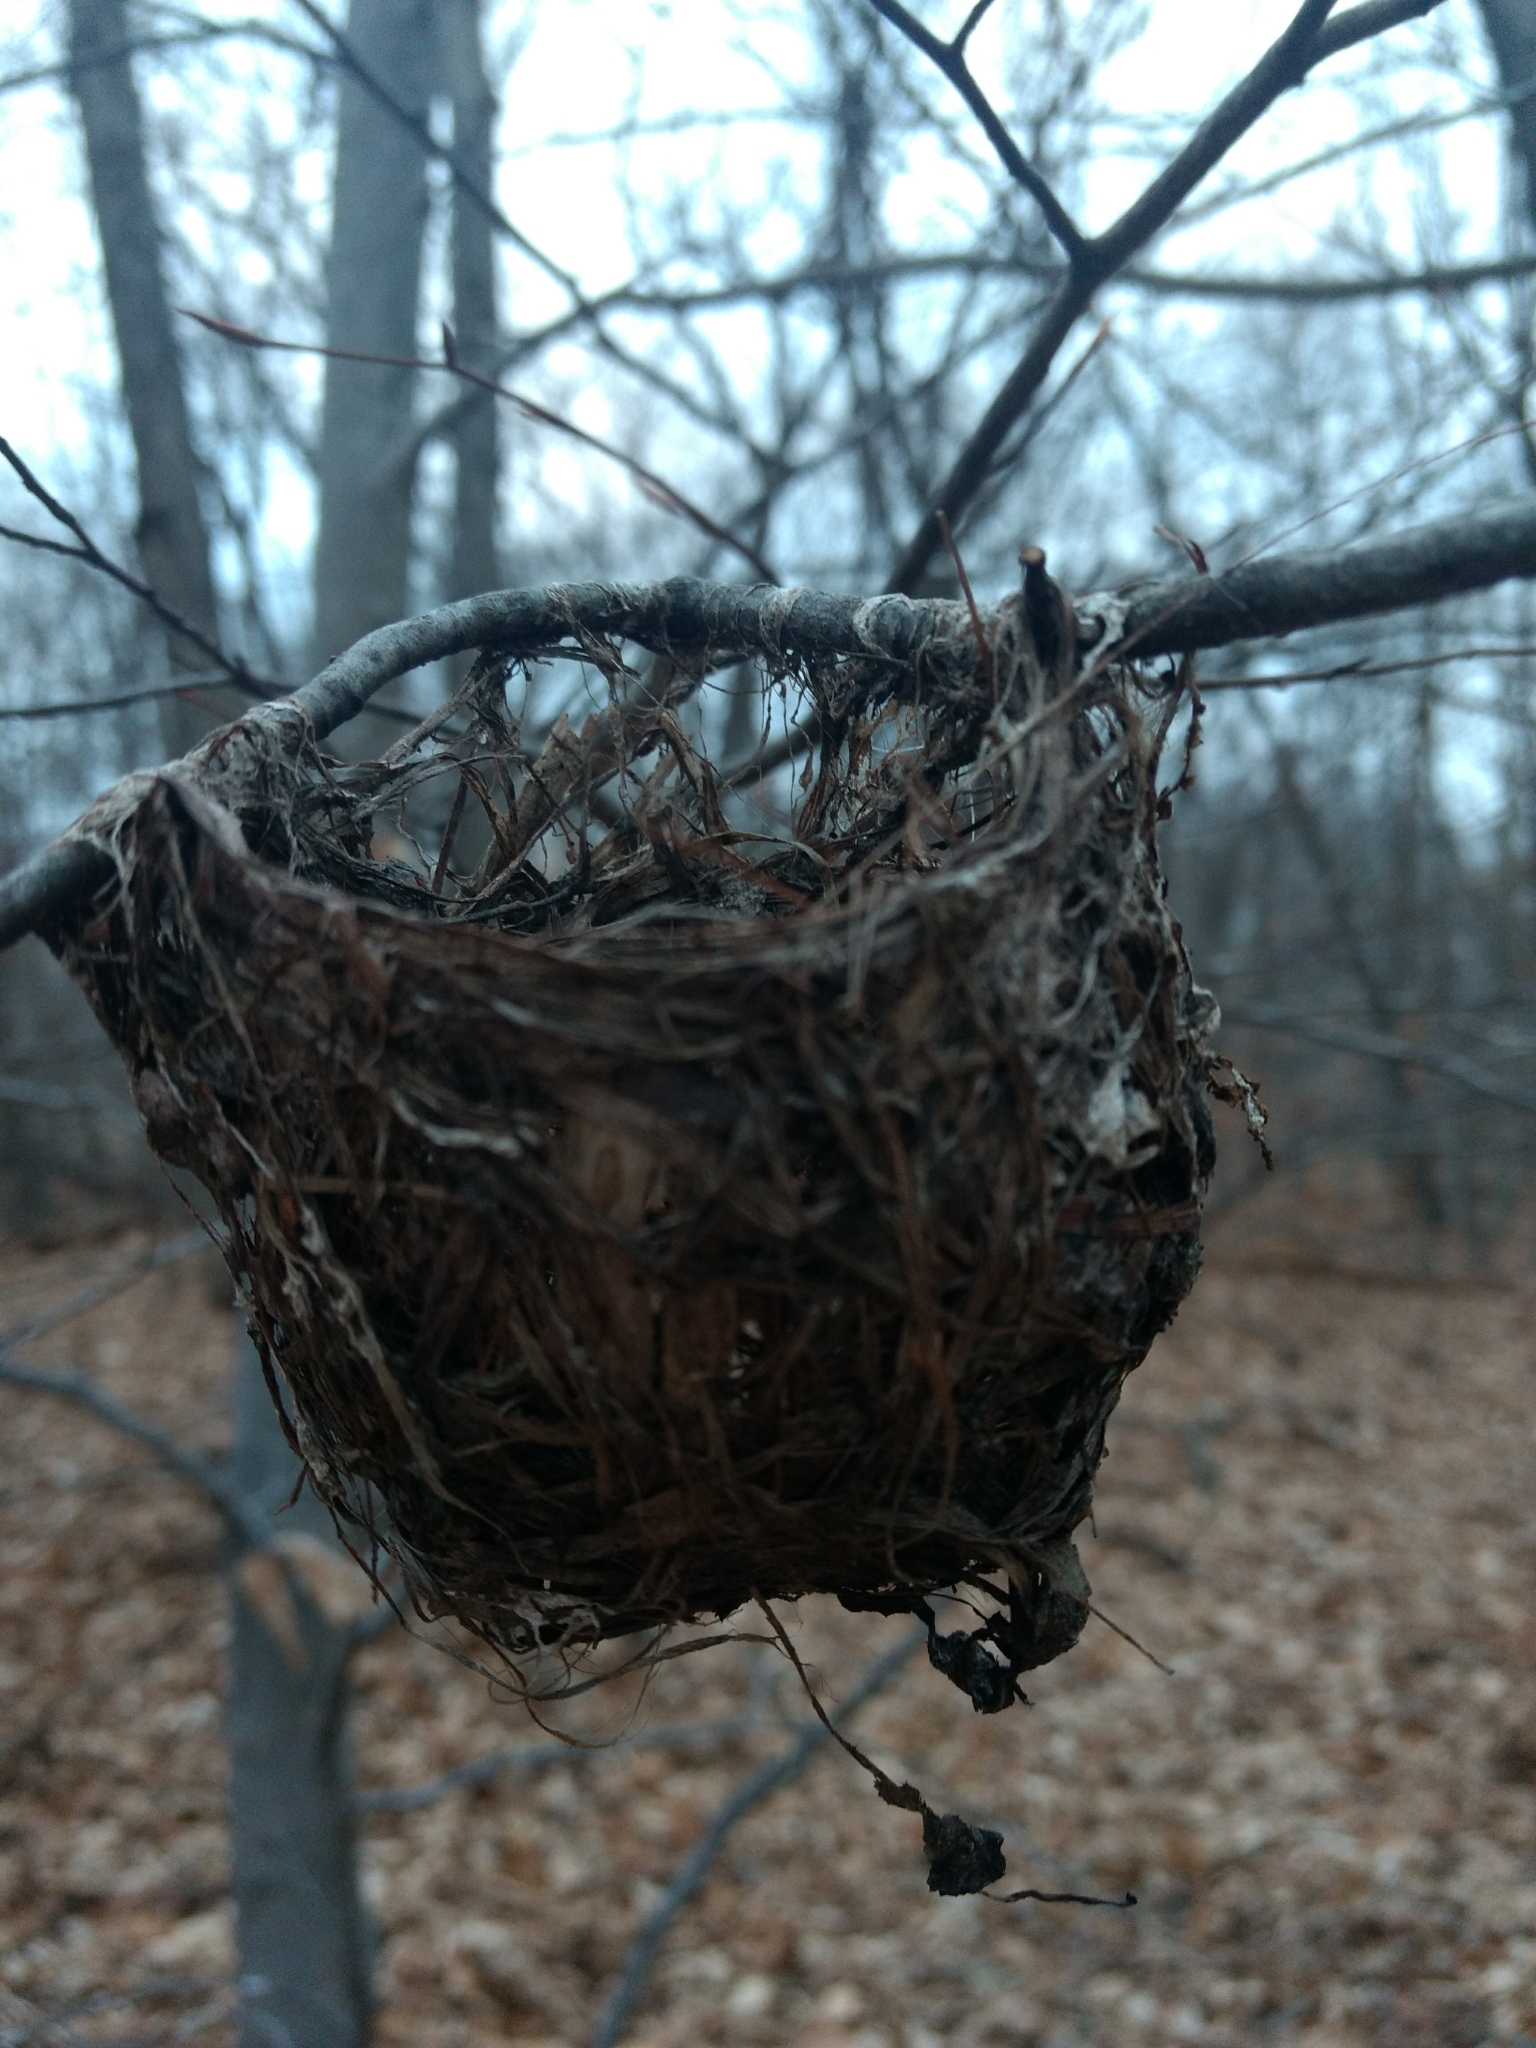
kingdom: Animalia
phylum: Chordata
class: Aves
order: Passeriformes
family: Vireonidae
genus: Vireo
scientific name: Vireo
